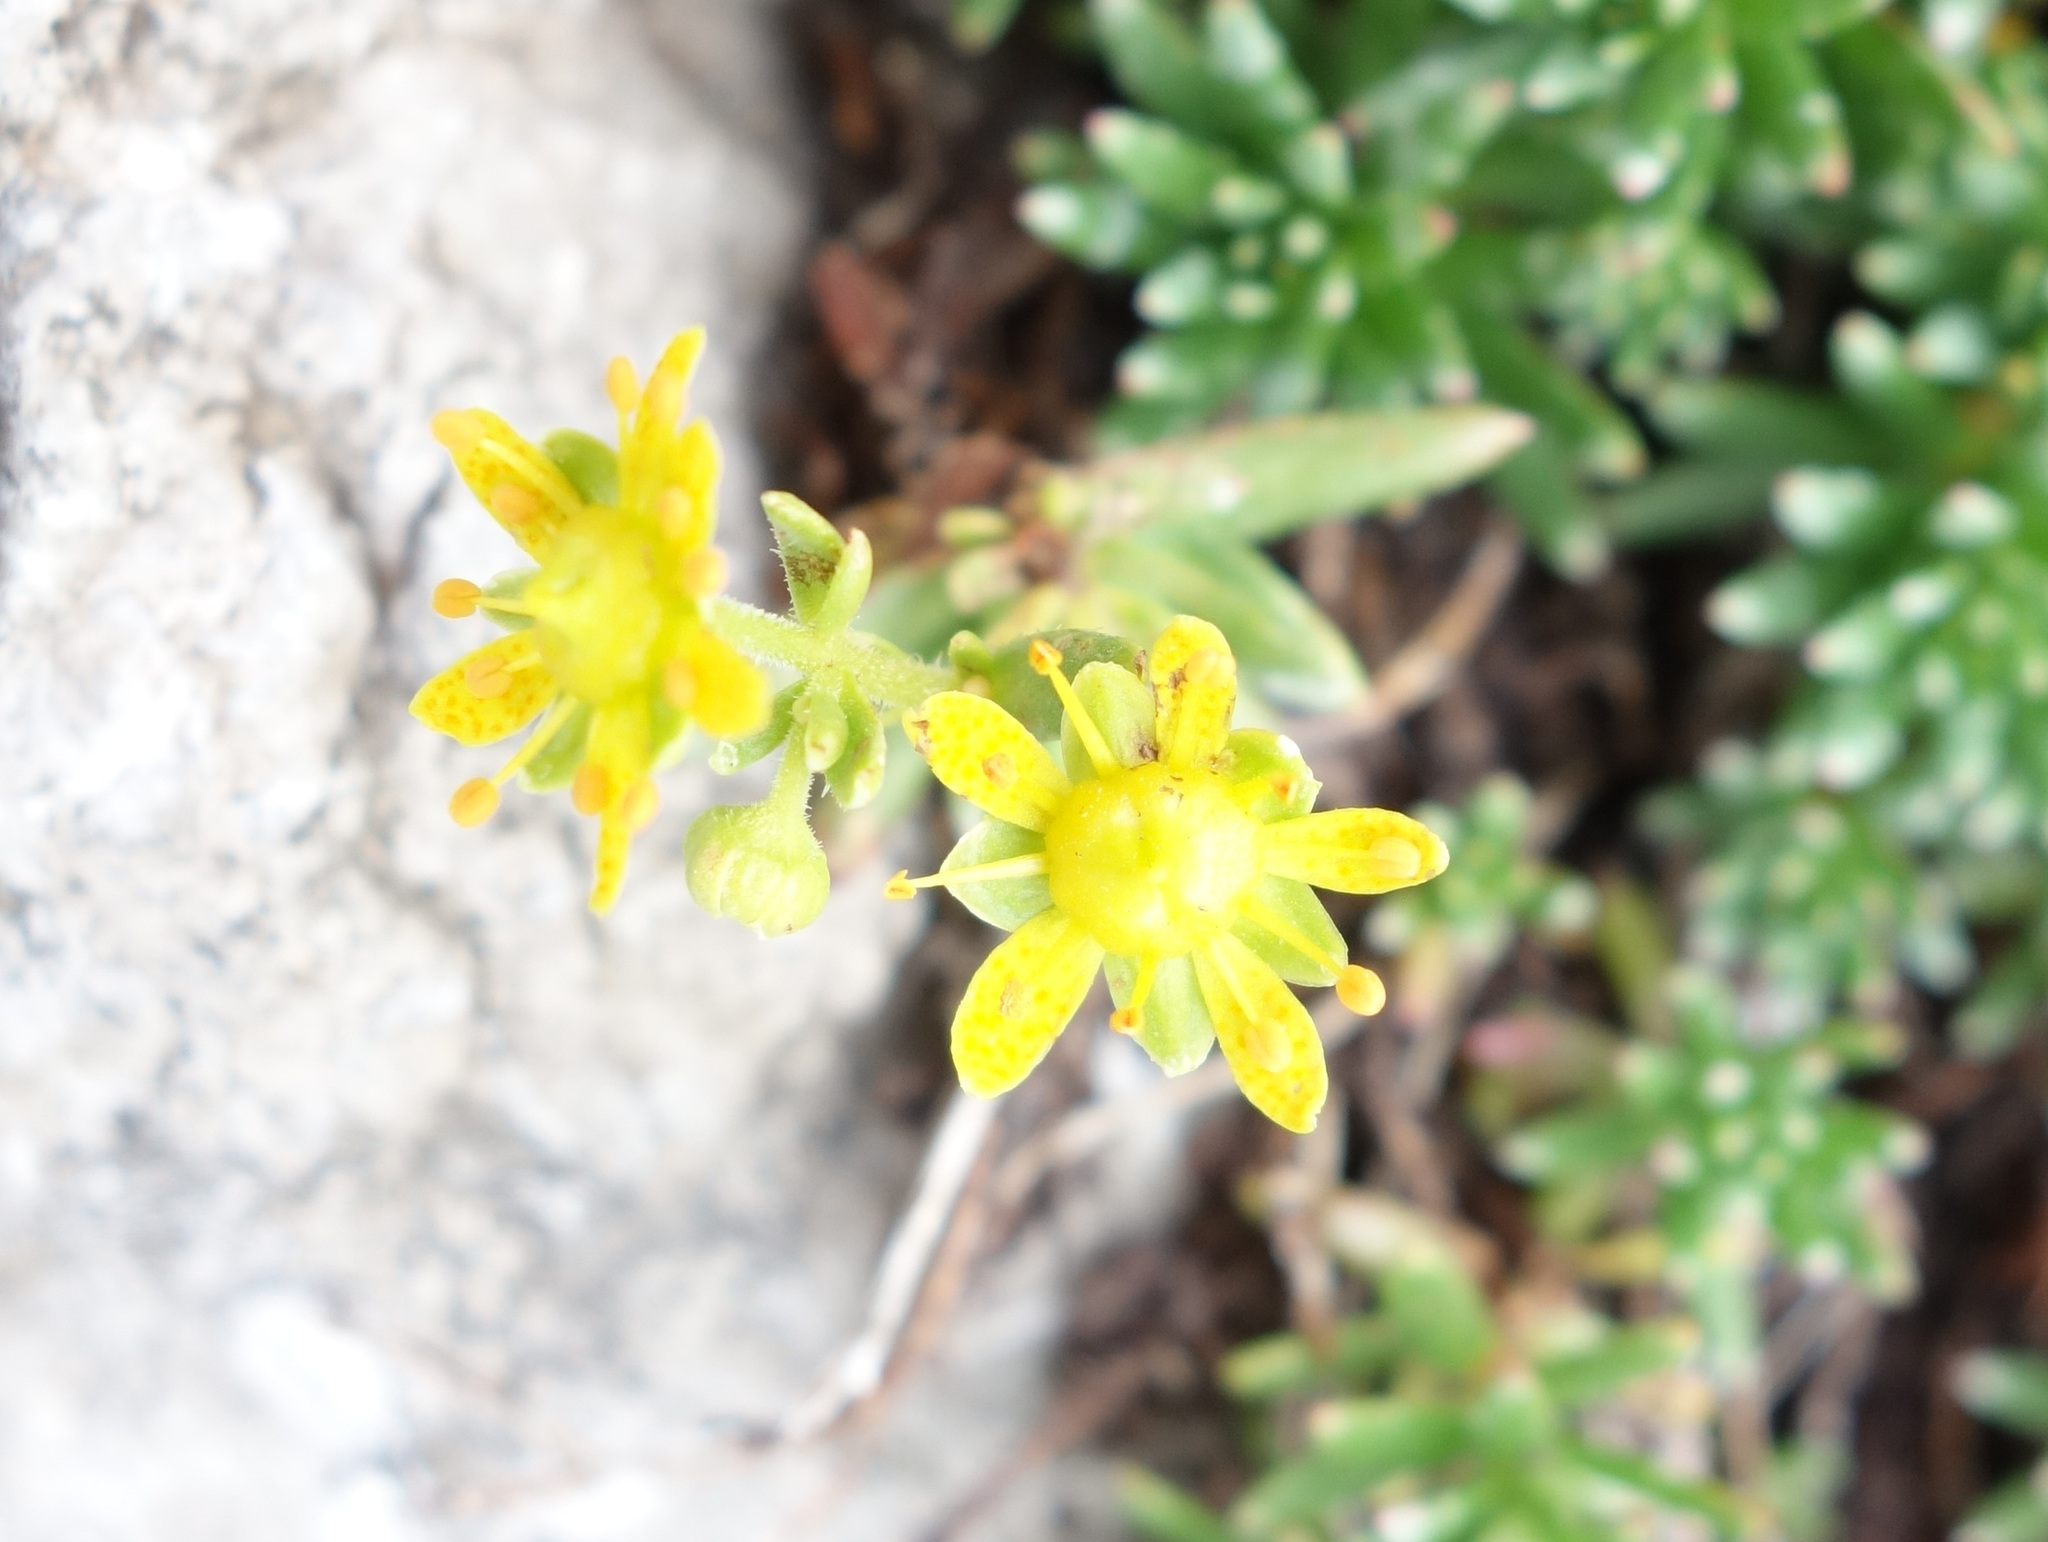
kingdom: Plantae
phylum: Tracheophyta
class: Magnoliopsida
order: Saxifragales
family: Saxifragaceae
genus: Saxifraga
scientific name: Saxifraga aizoides
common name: Yellow mountain saxifrage
